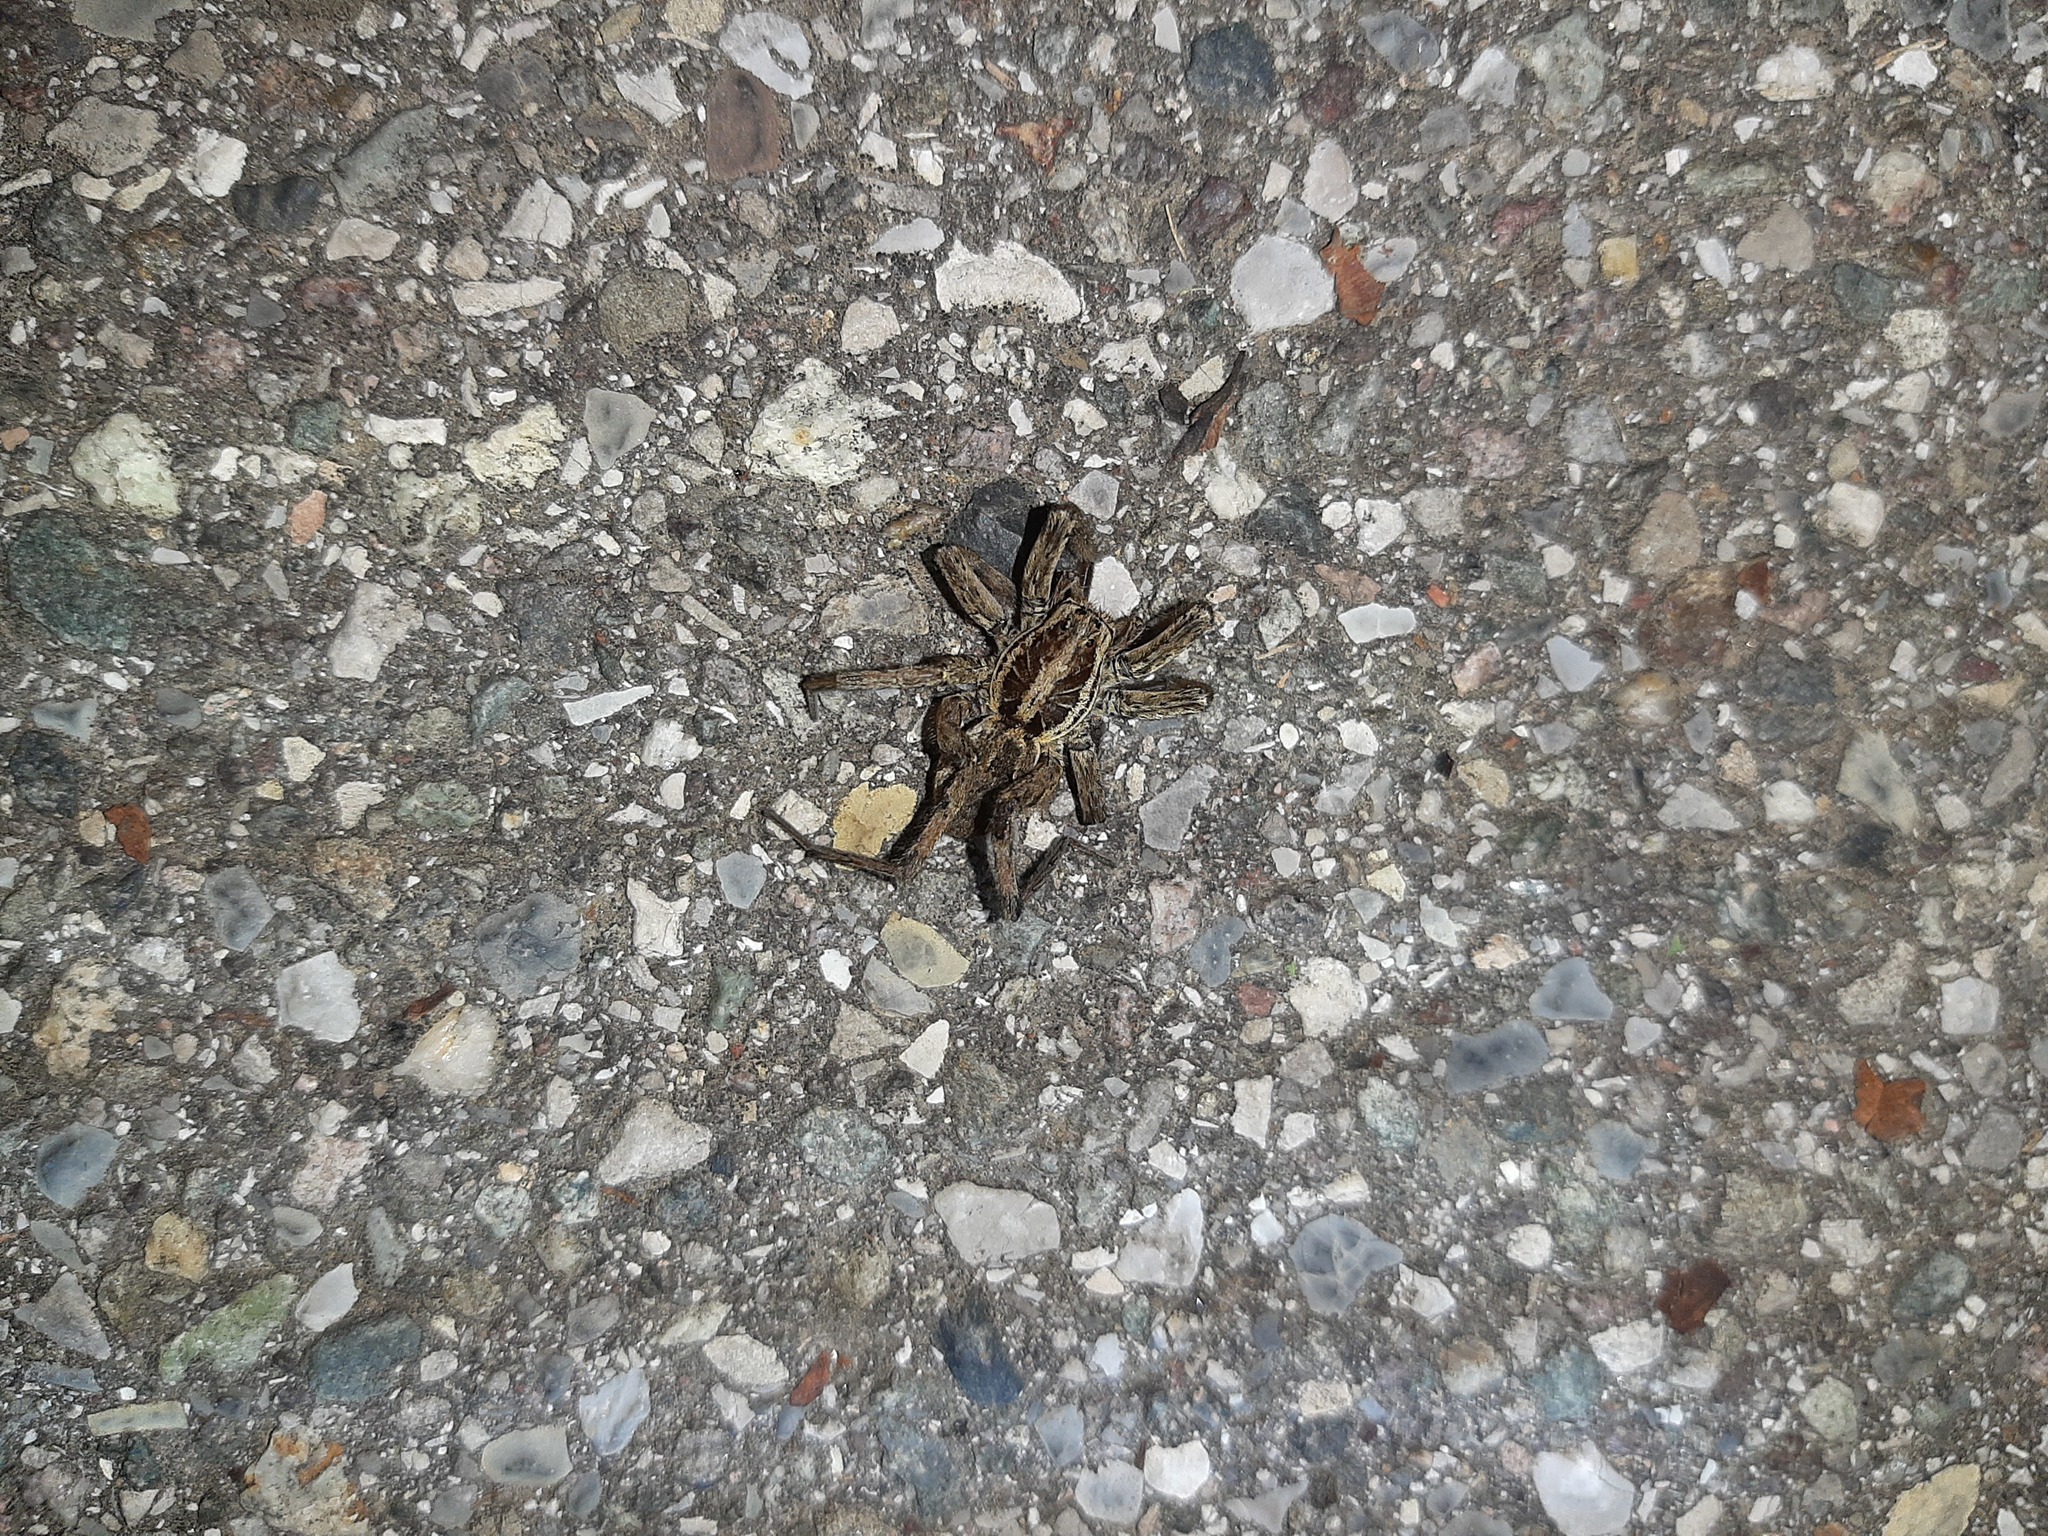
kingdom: Animalia
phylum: Arthropoda
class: Arachnida
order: Araneae
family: Lycosidae
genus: Hogna
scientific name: Hogna radiata
